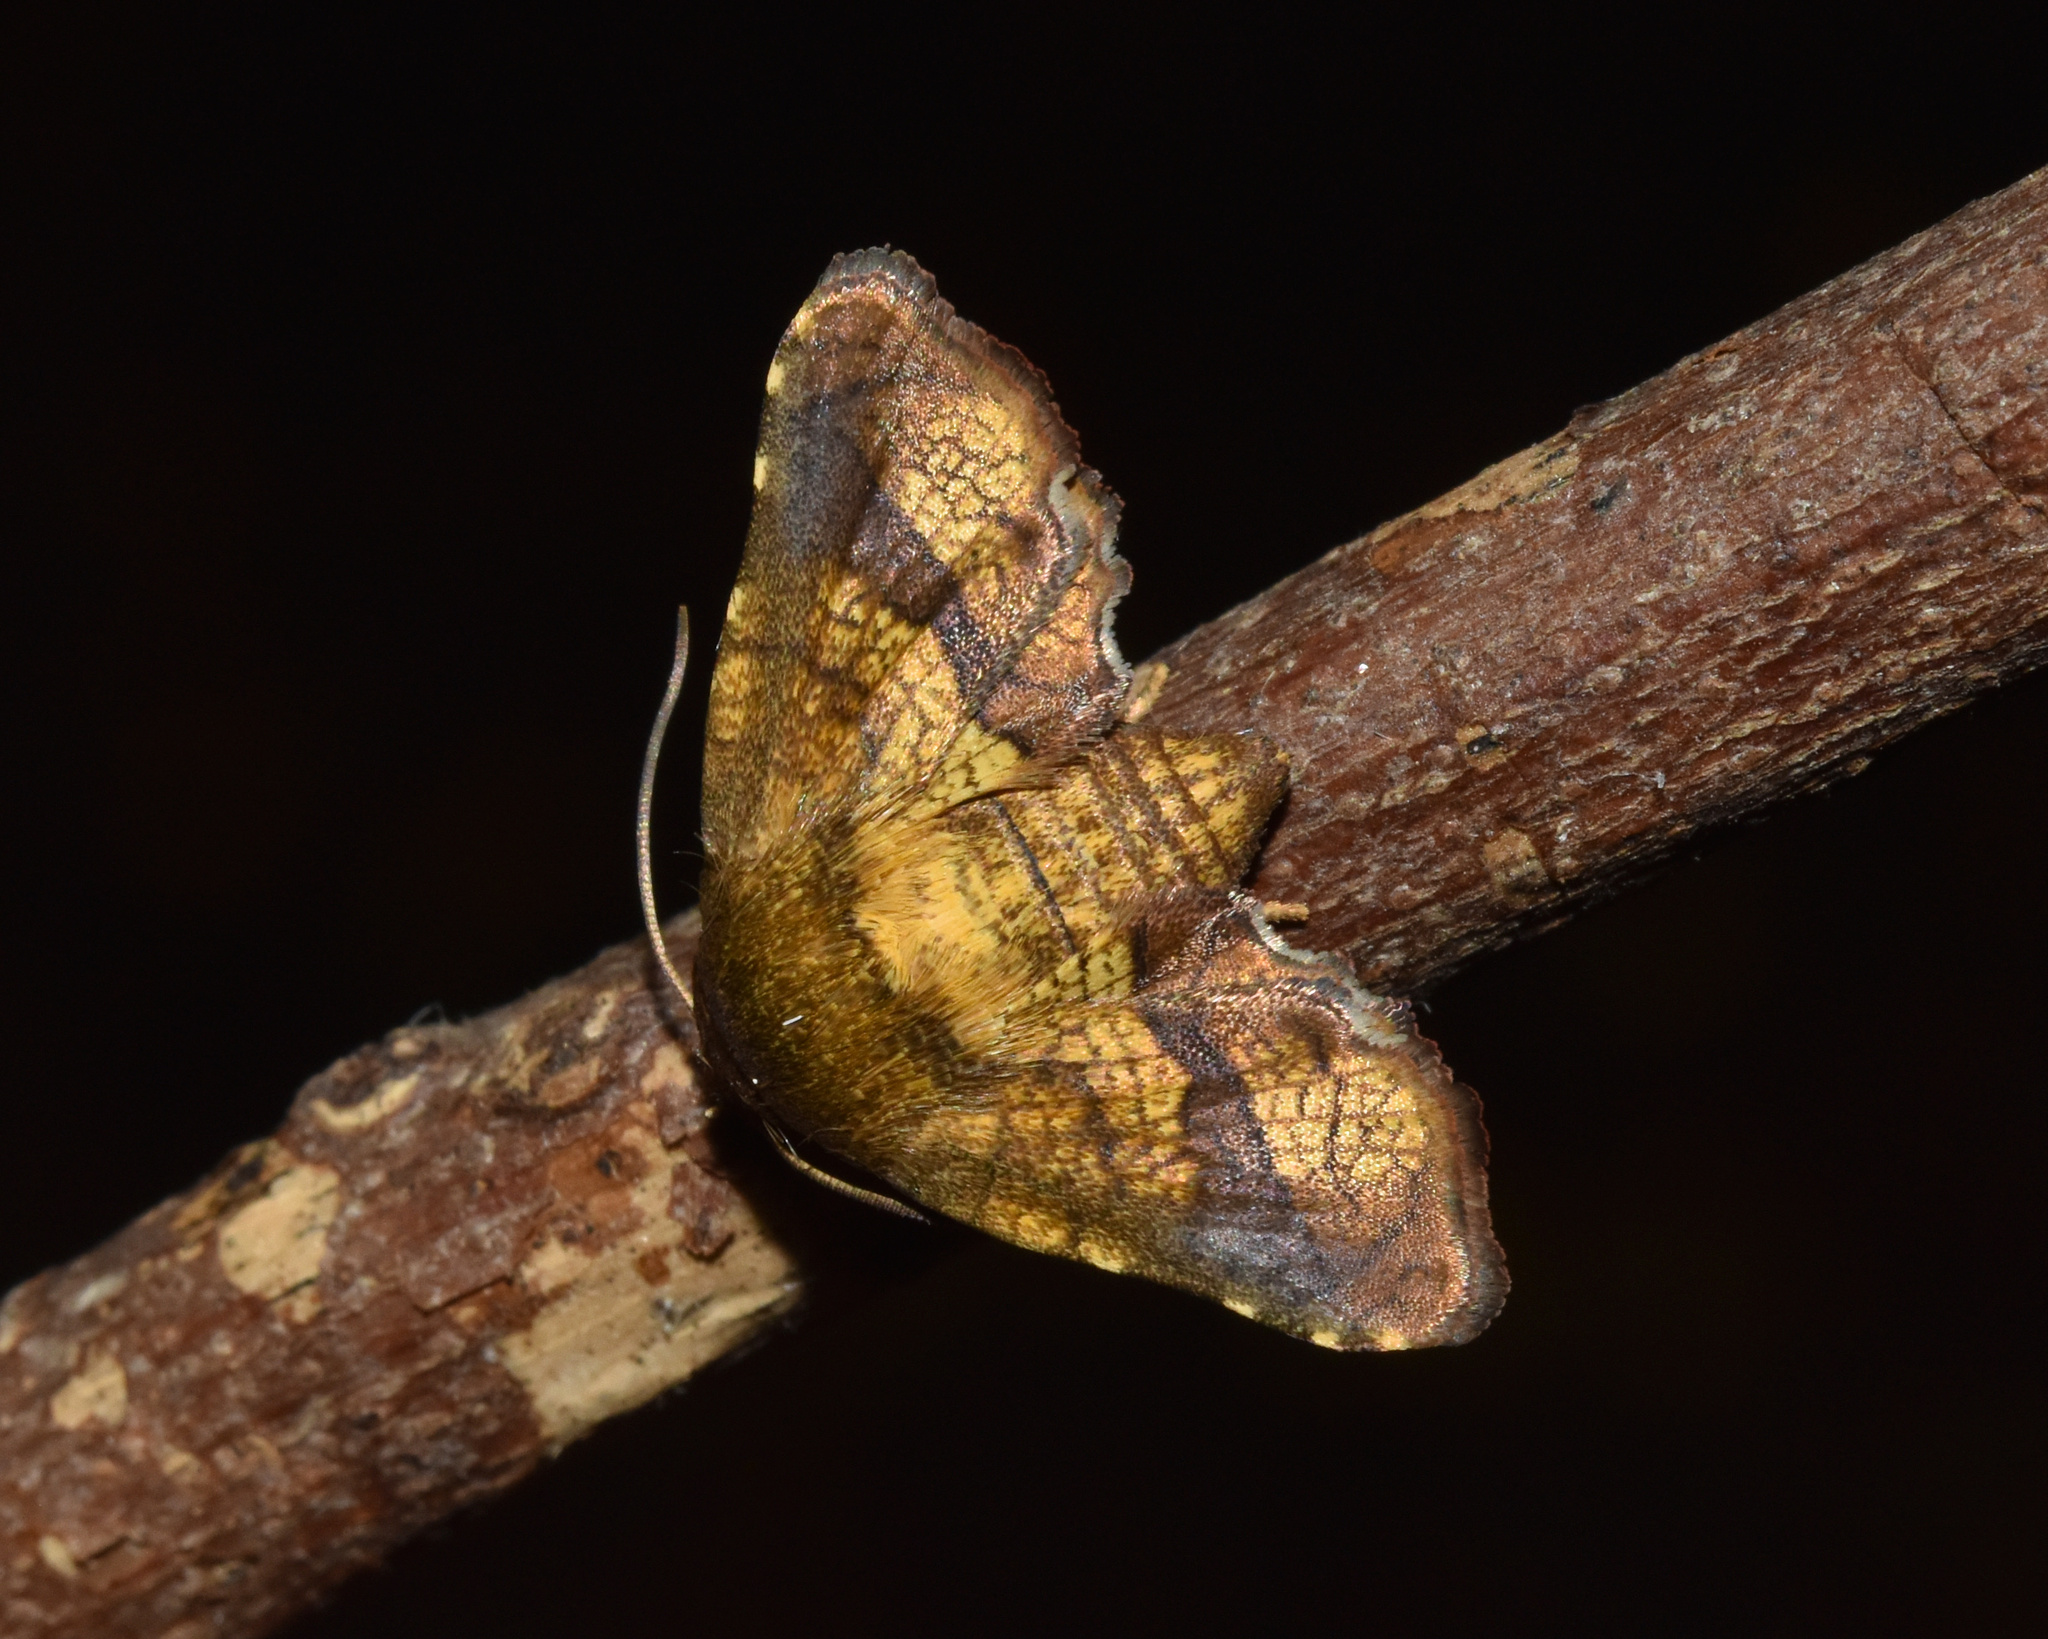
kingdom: Animalia
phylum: Arthropoda
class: Insecta
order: Lepidoptera
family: Thyrididae
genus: Dysodia
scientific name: Dysodia crassa
